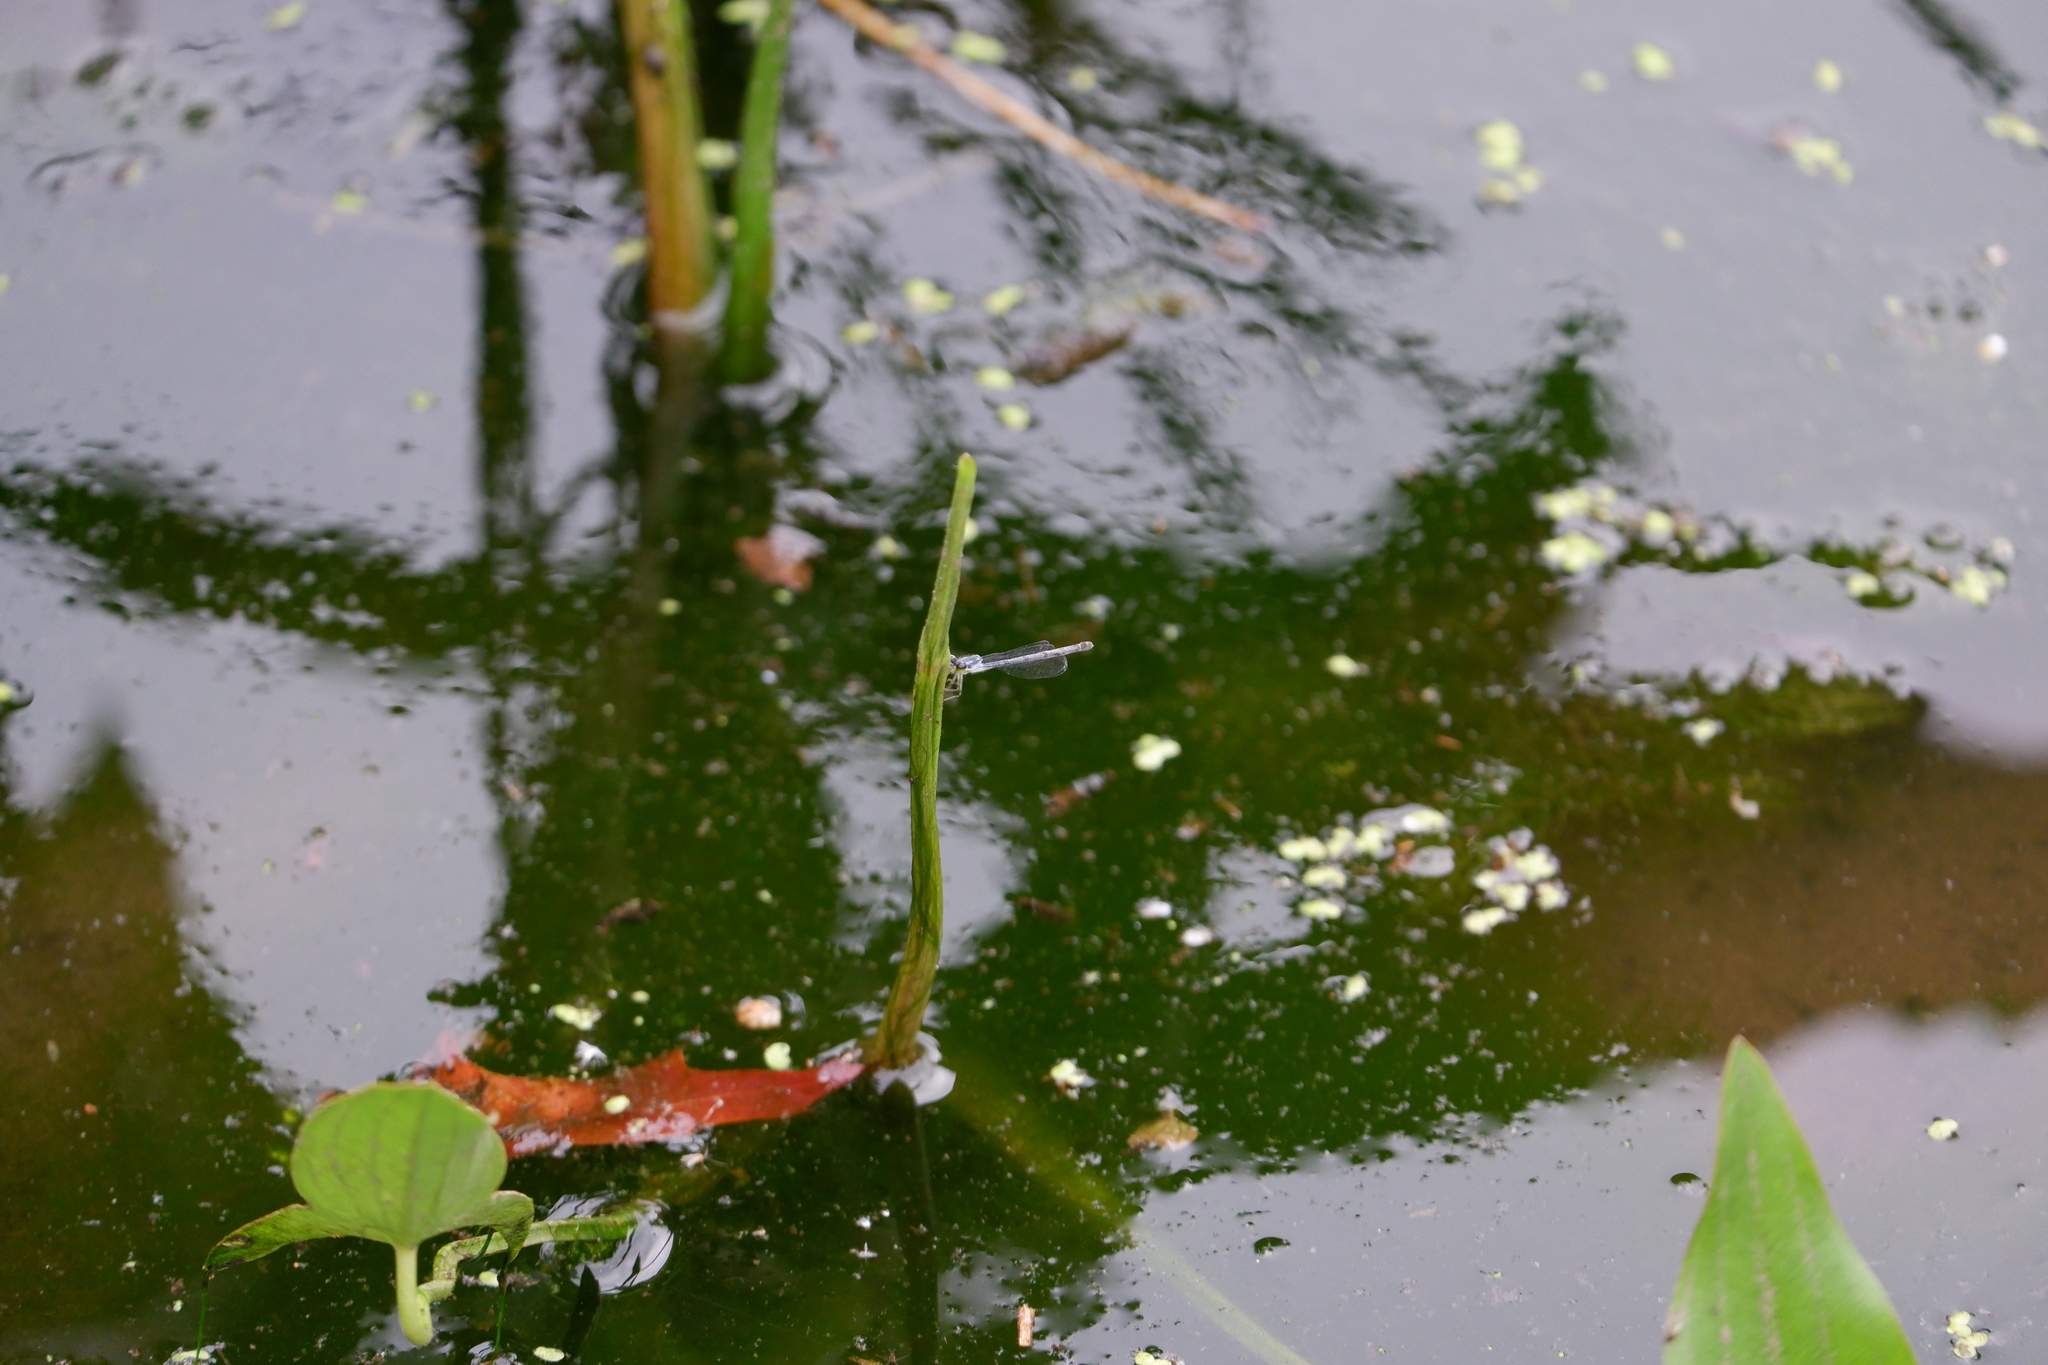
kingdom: Animalia
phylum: Arthropoda
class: Insecta
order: Odonata
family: Coenagrionidae
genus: Ischnura
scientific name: Ischnura posita
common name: Fragile forktail
